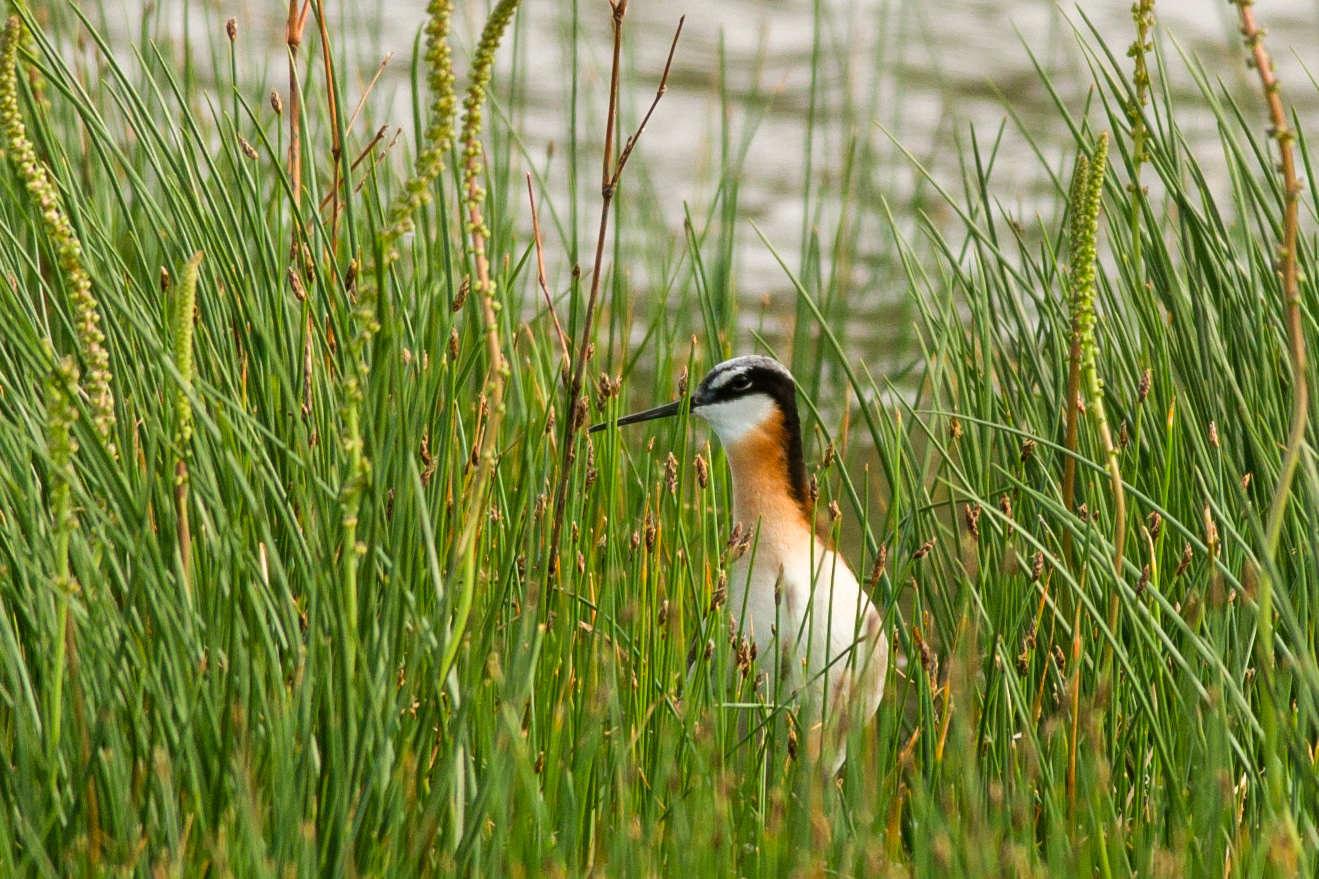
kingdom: Animalia
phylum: Chordata
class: Aves
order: Charadriiformes
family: Scolopacidae
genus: Phalaropus
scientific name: Phalaropus tricolor
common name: Wilson's phalarope
